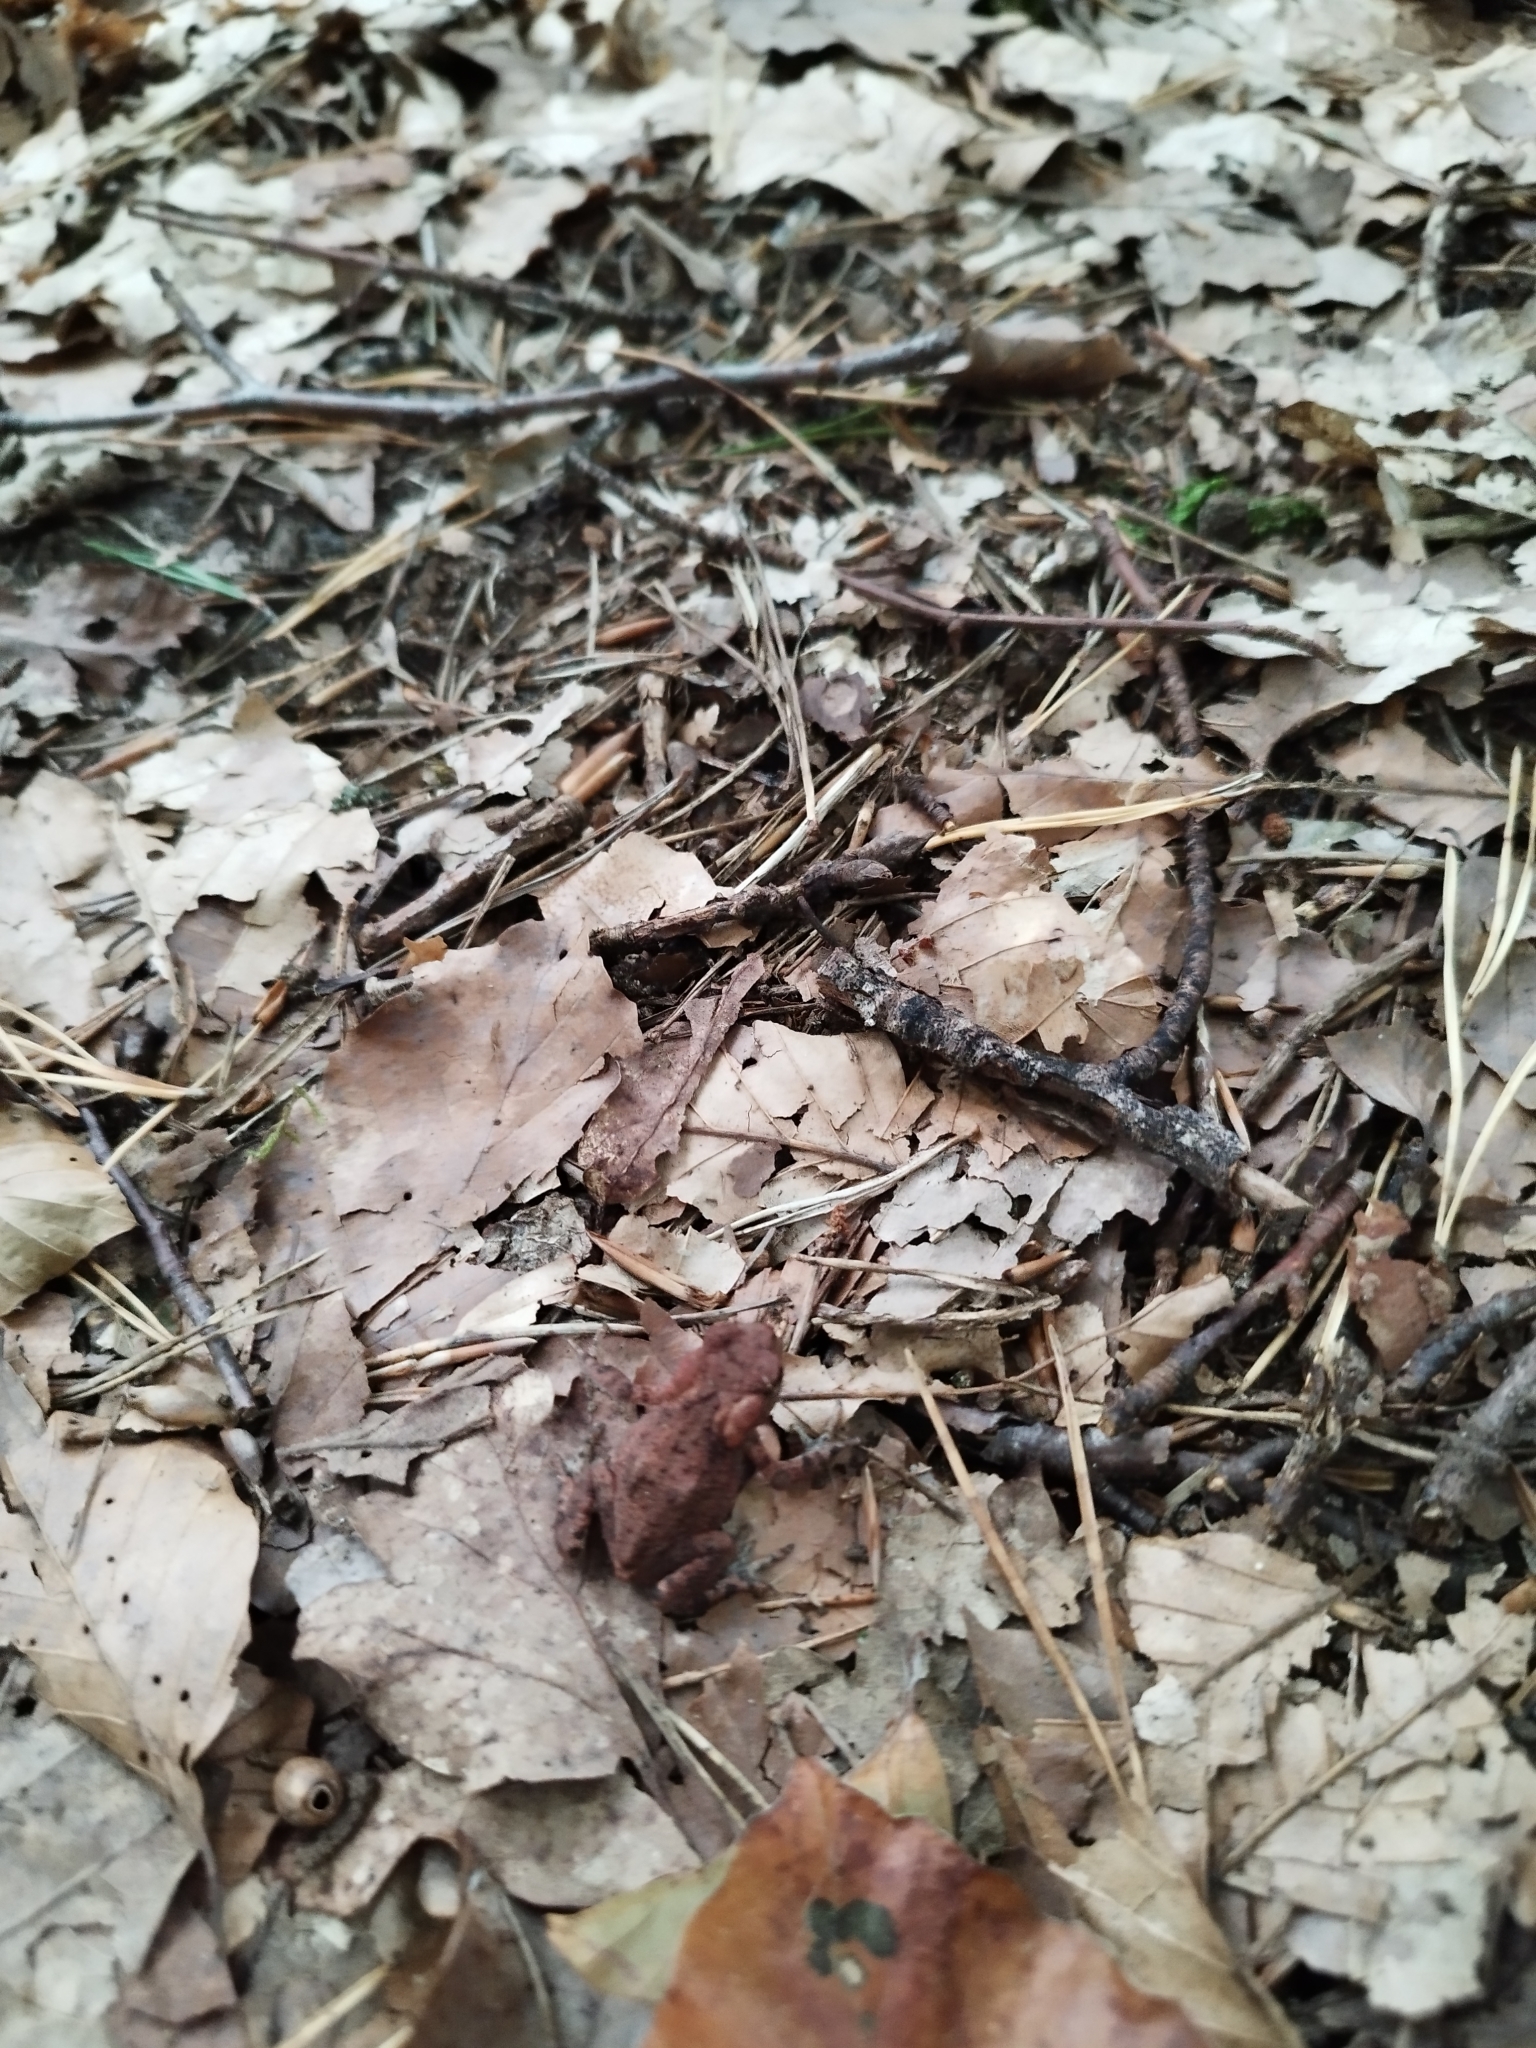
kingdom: Animalia
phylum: Chordata
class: Amphibia
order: Anura
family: Bufonidae
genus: Bufo
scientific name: Bufo bufo
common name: Common toad
